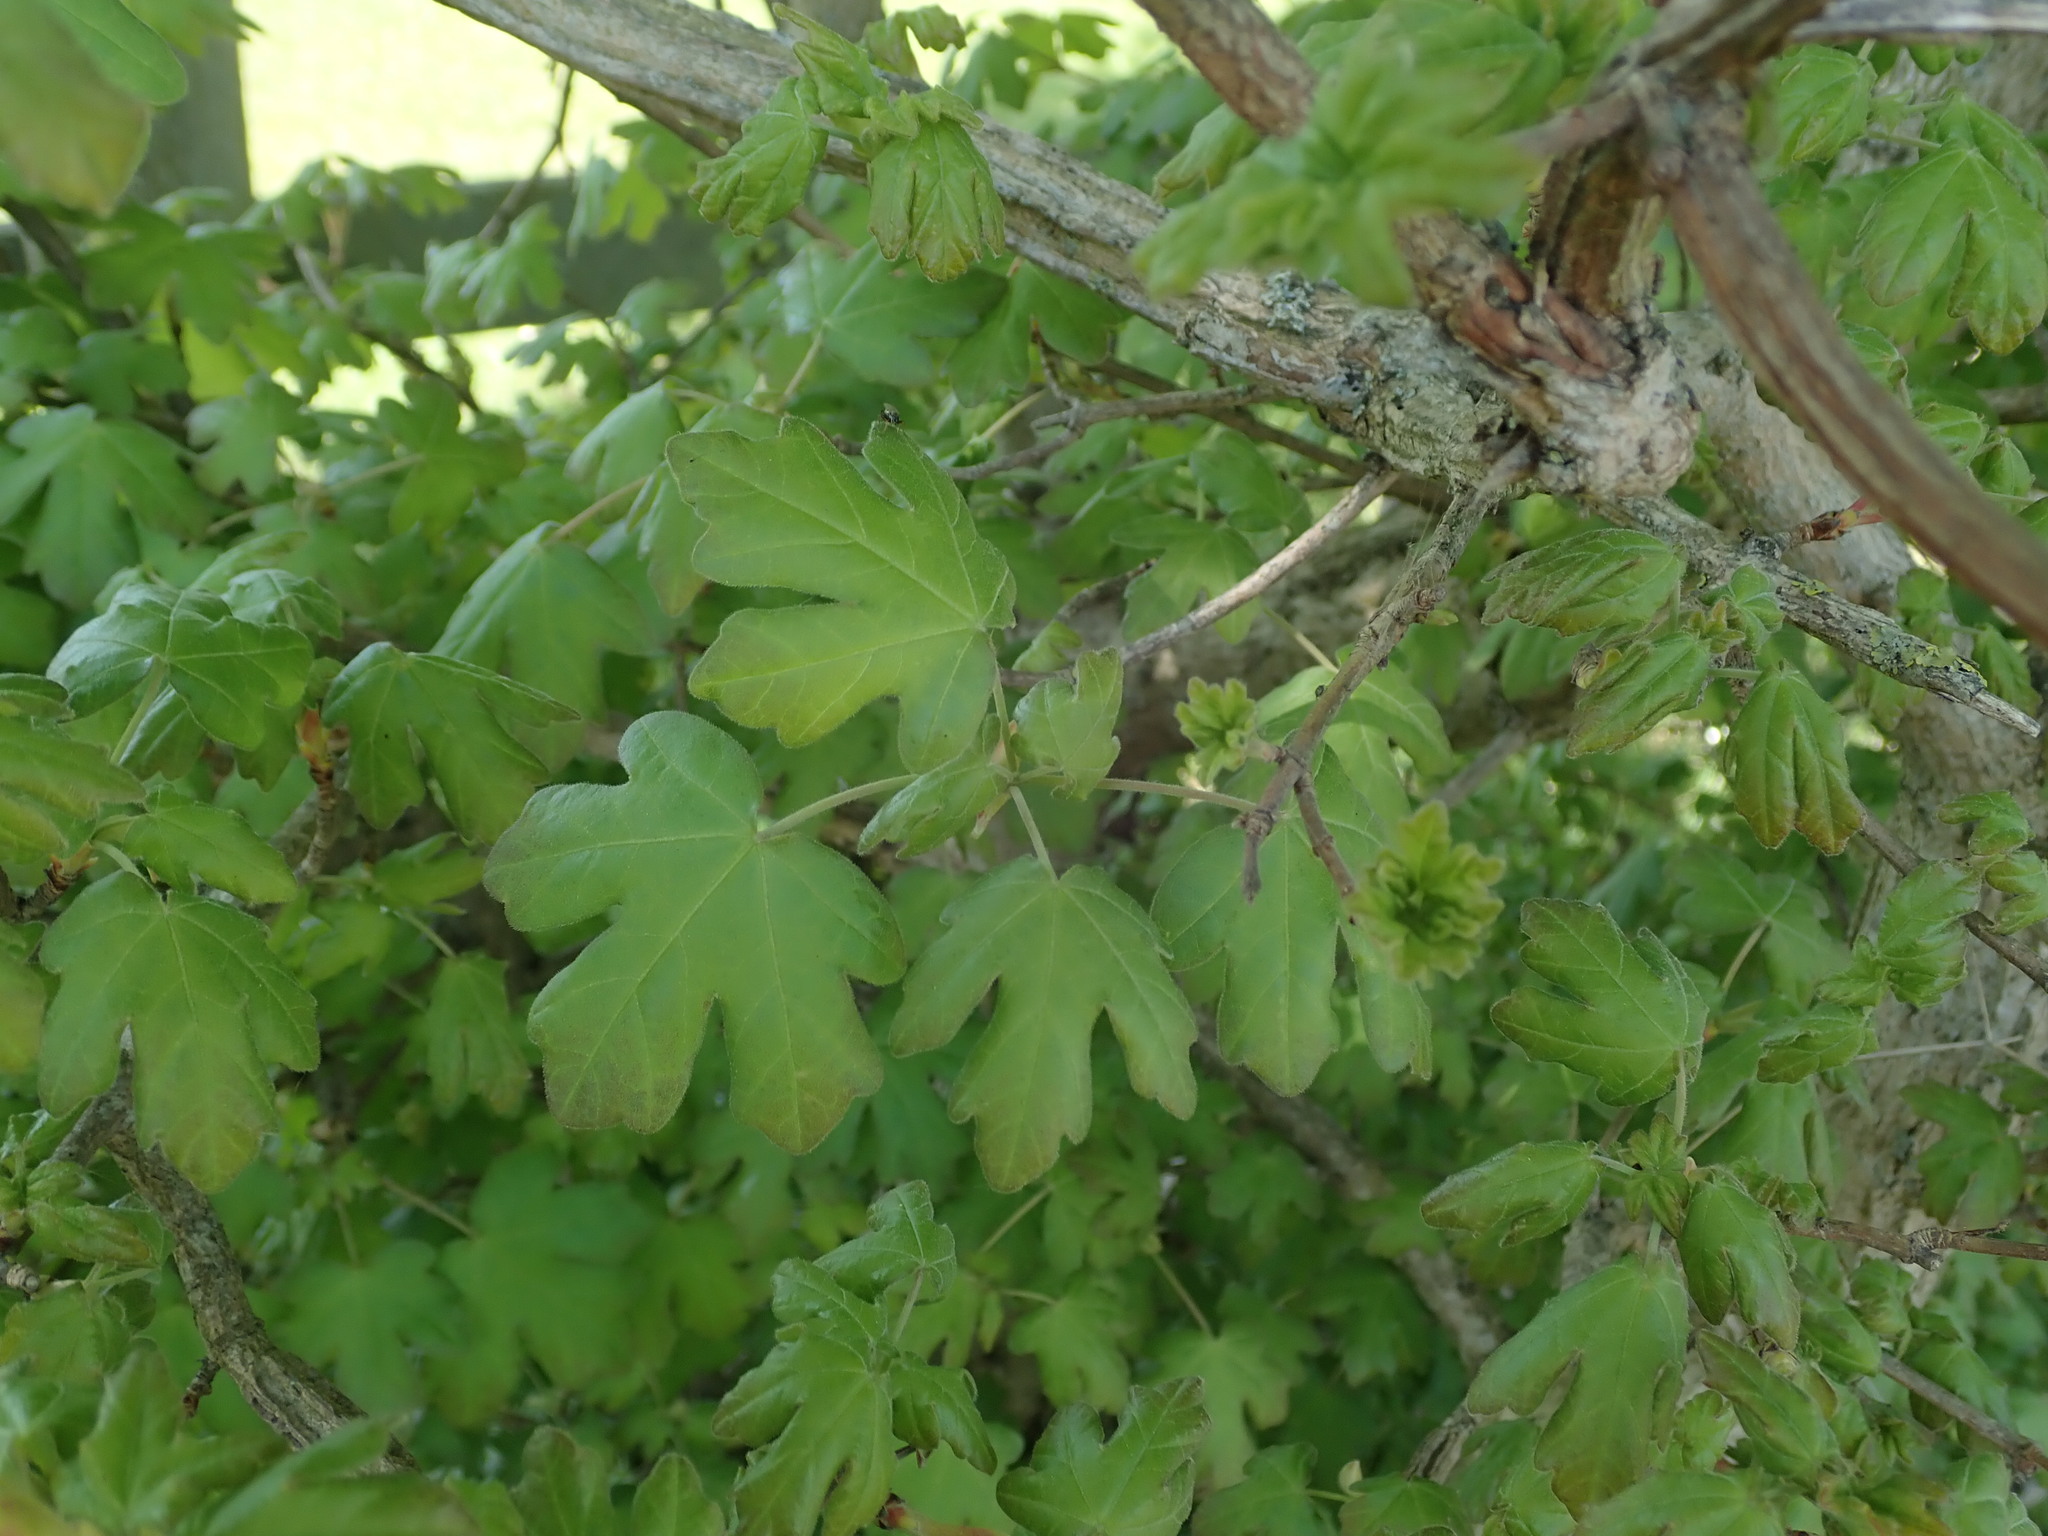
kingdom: Plantae
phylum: Tracheophyta
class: Magnoliopsida
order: Sapindales
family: Sapindaceae
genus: Acer
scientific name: Acer campestre
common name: Field maple
